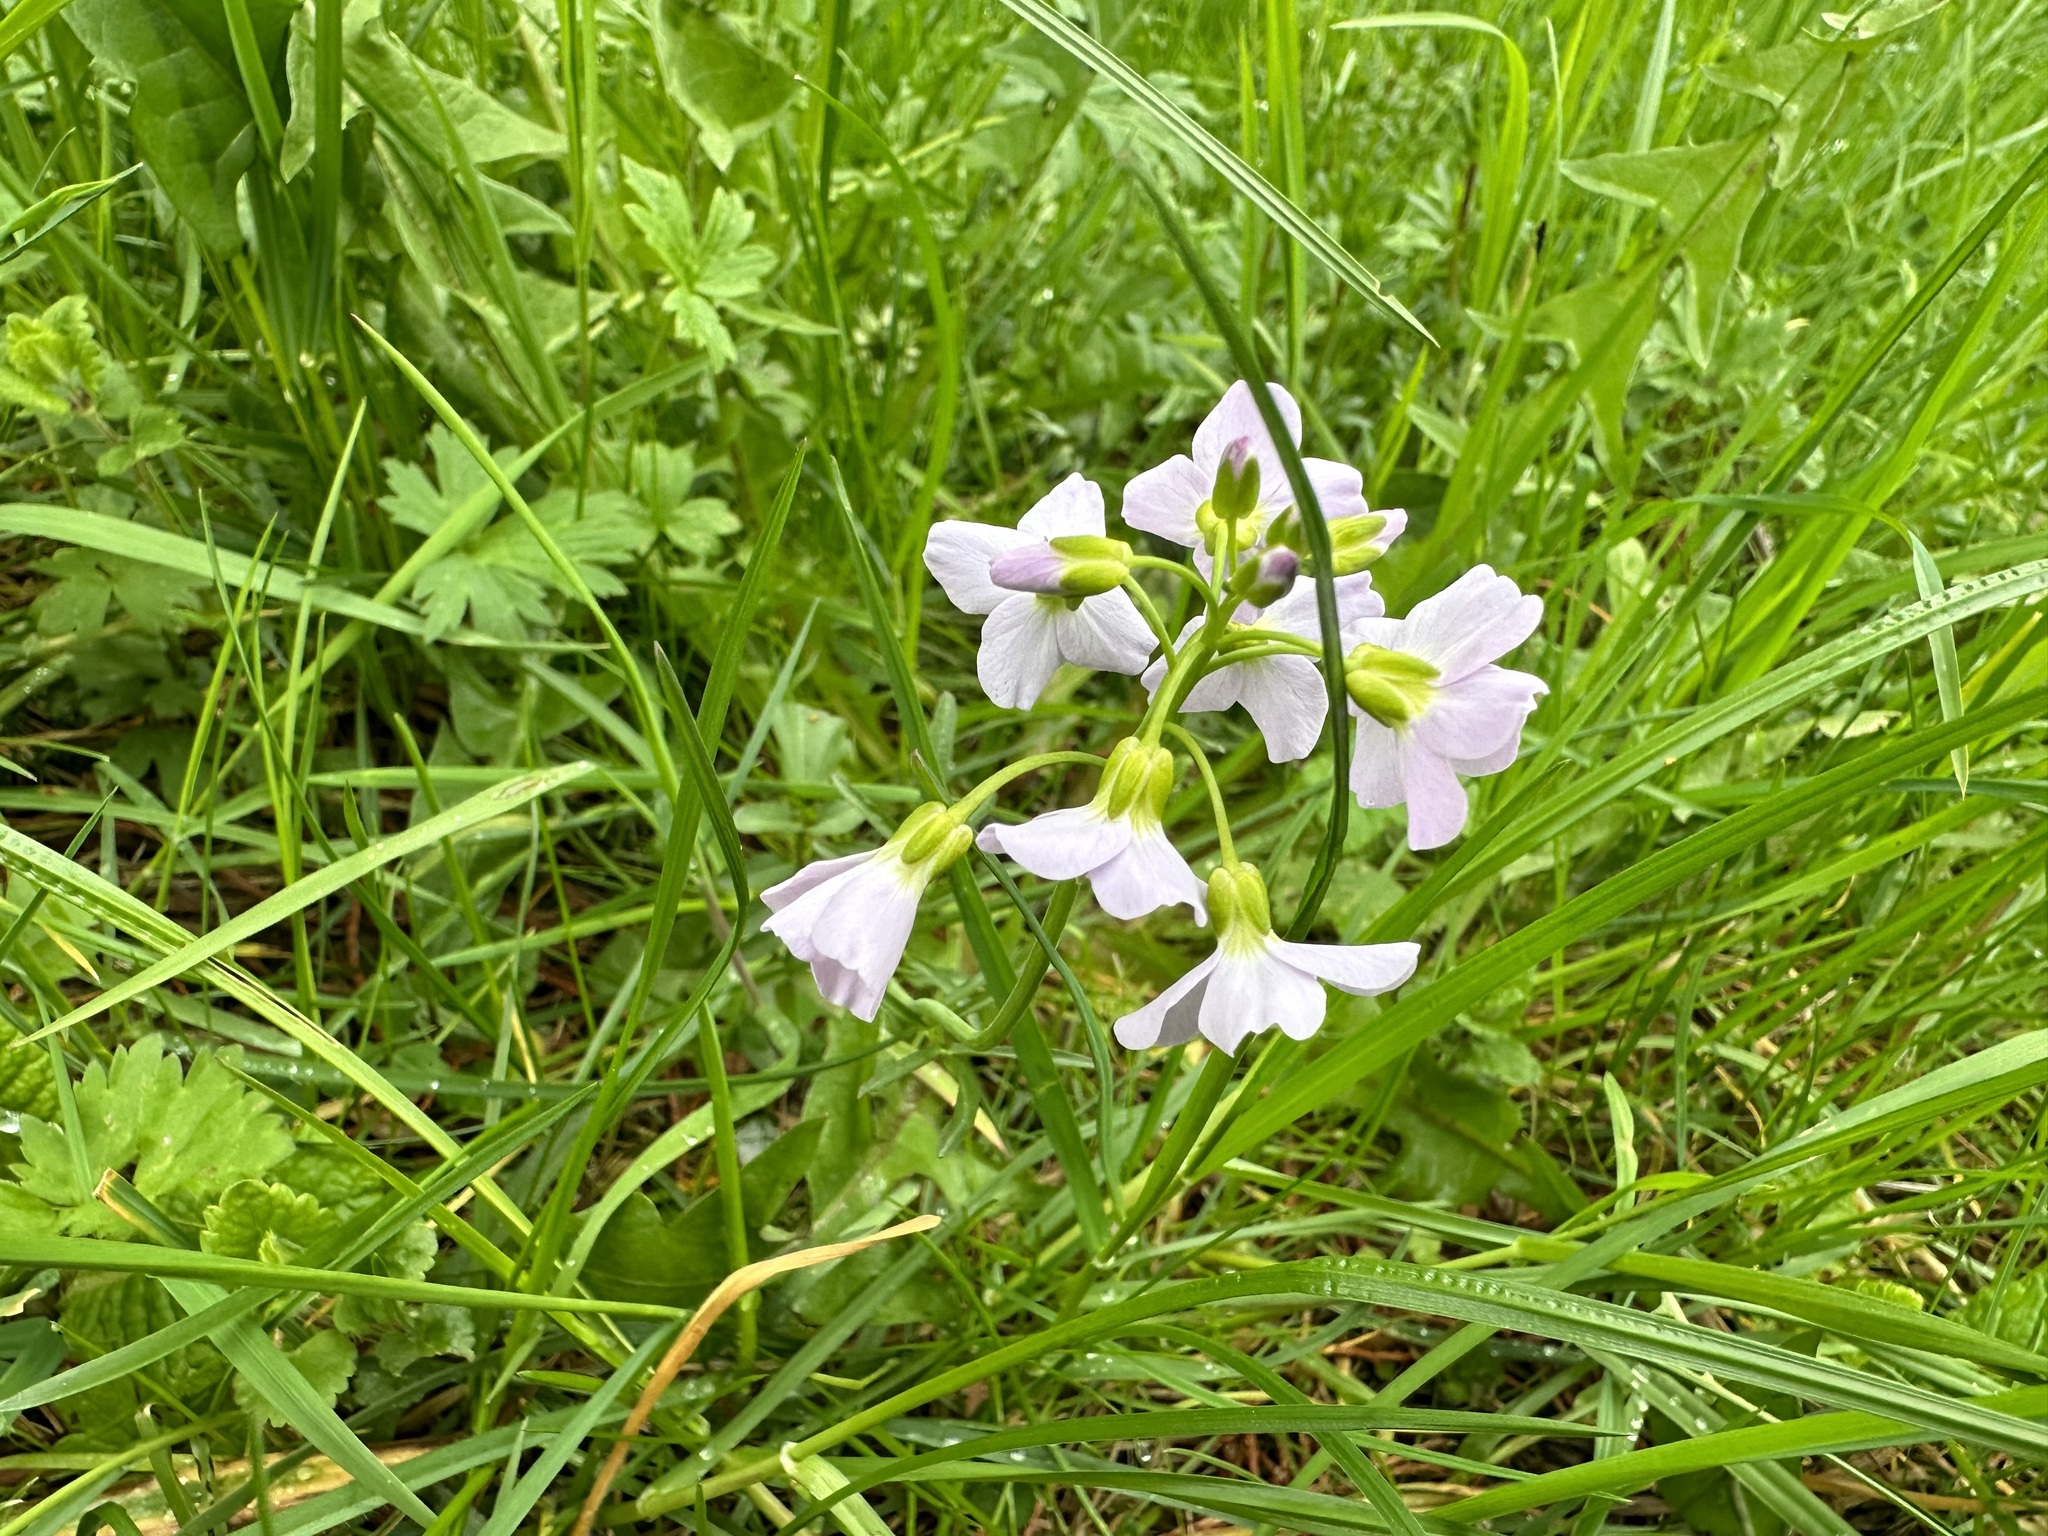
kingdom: Plantae
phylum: Tracheophyta
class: Magnoliopsida
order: Brassicales
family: Brassicaceae
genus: Cardamine
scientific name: Cardamine pratensis
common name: Cuckoo flower
